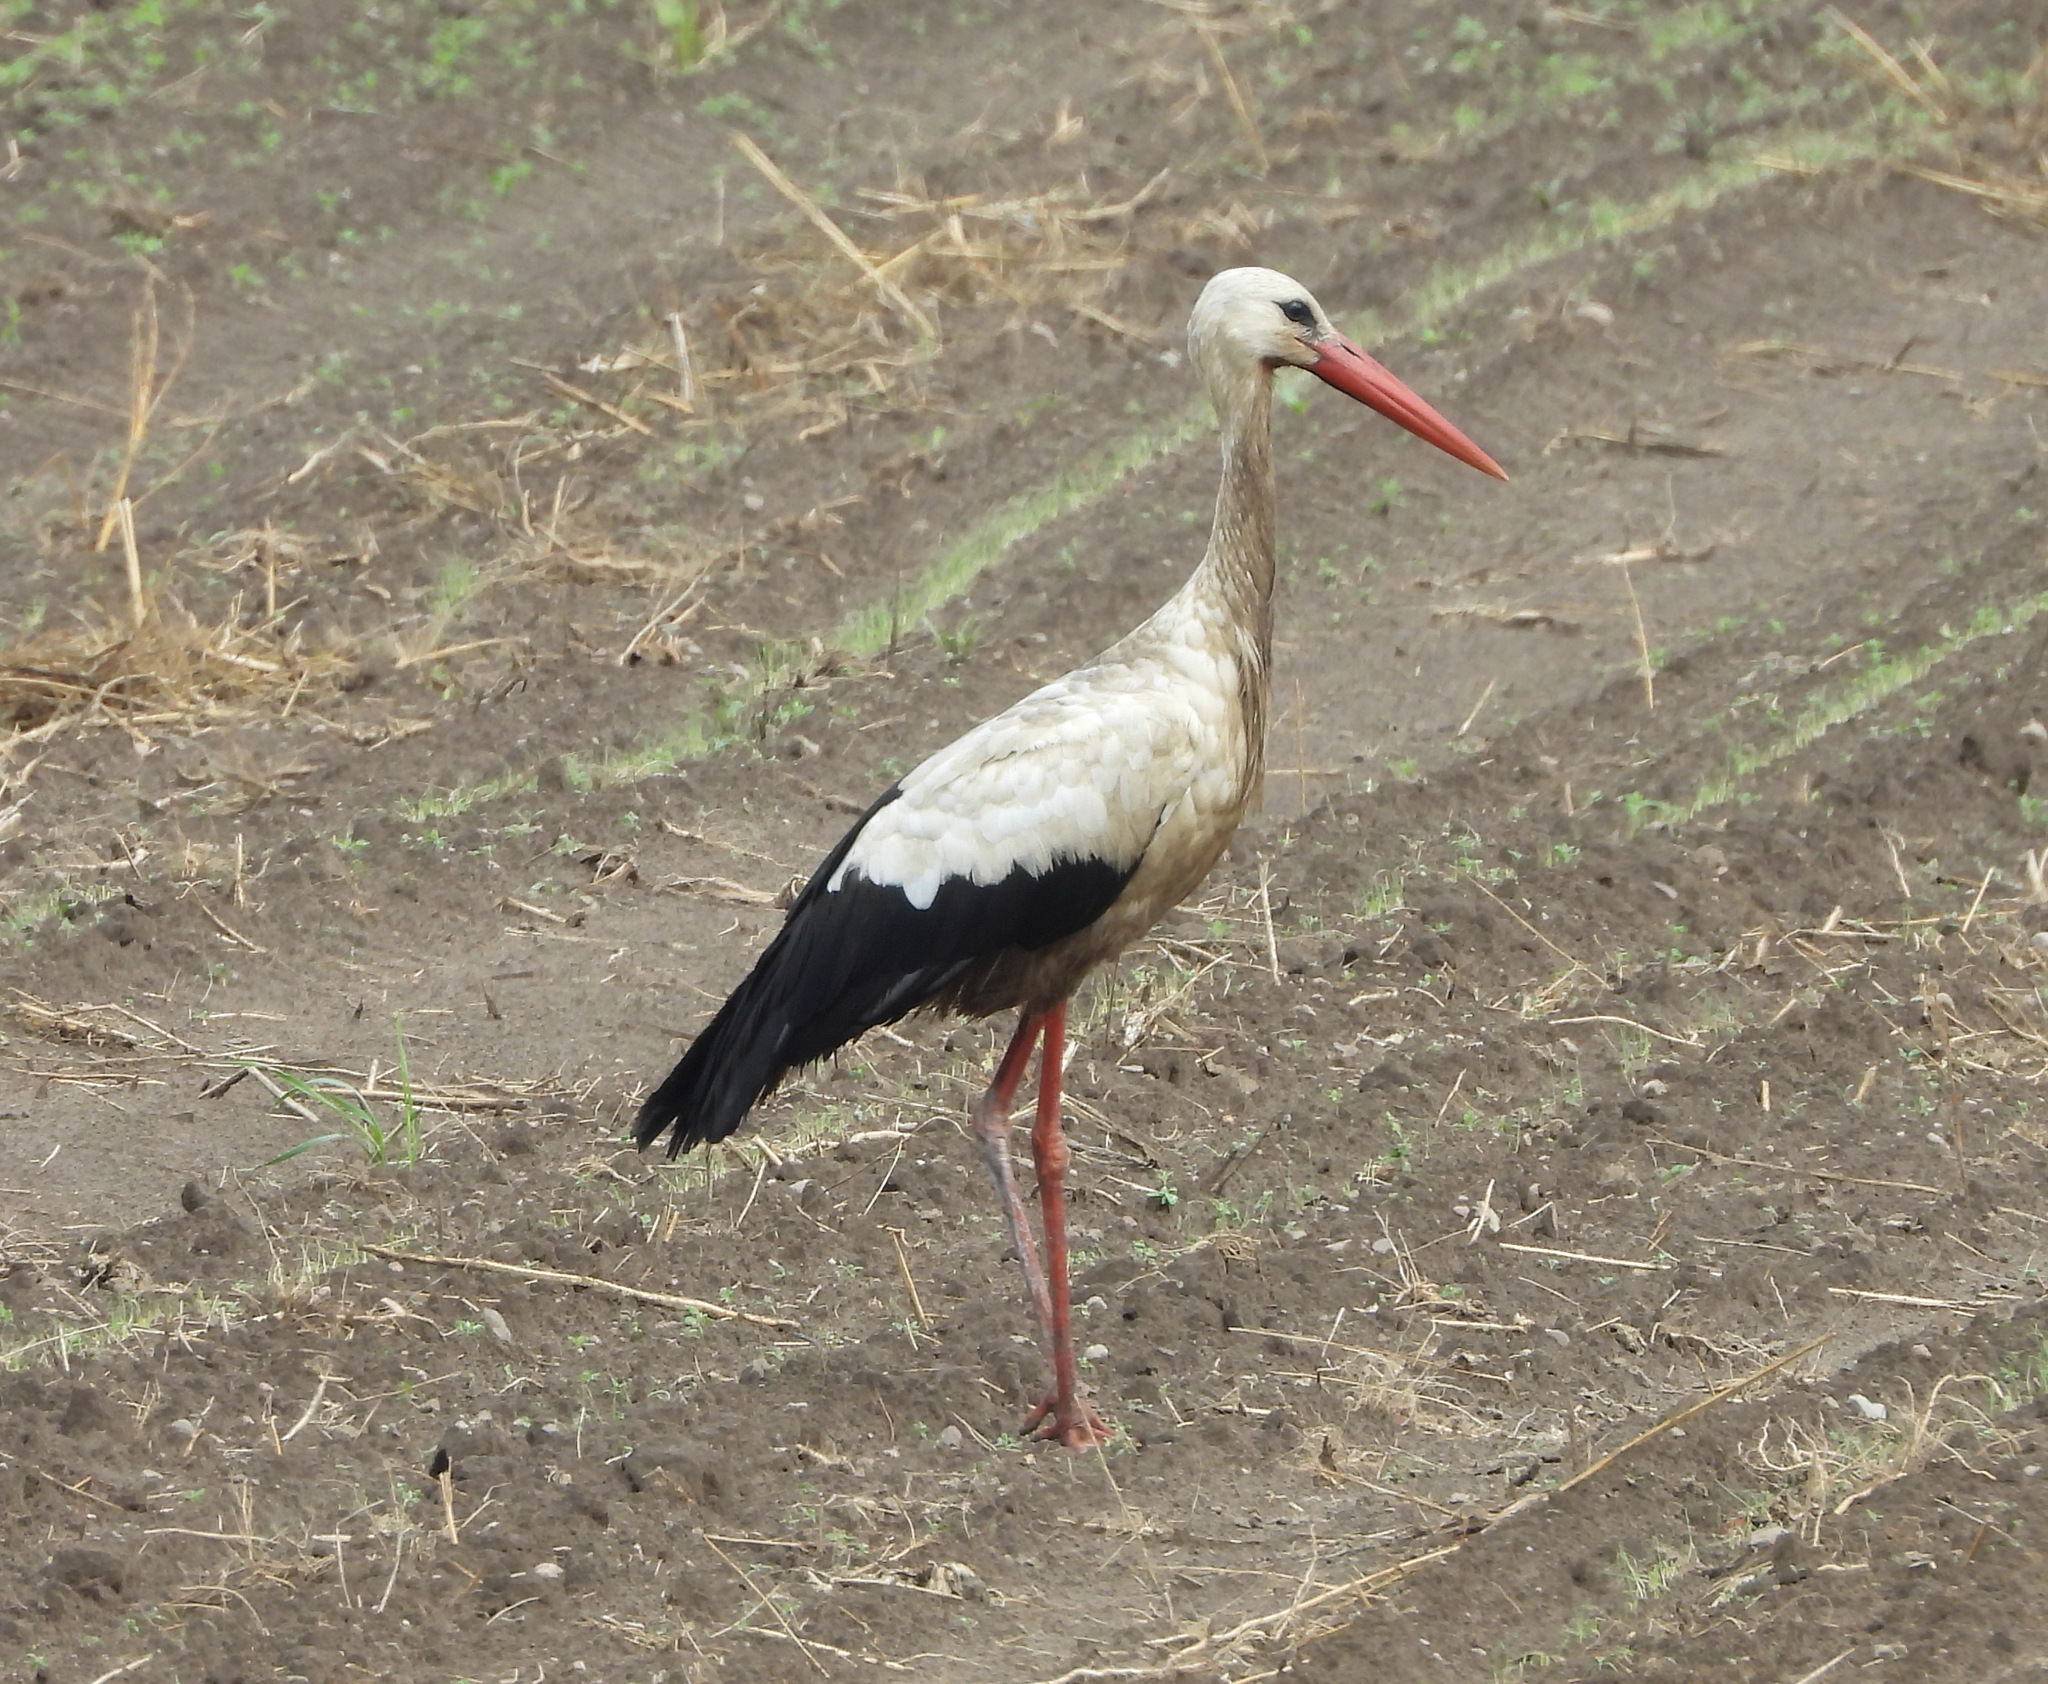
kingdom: Animalia
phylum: Chordata
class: Aves
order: Ciconiiformes
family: Ciconiidae
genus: Ciconia
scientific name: Ciconia ciconia
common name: White stork
